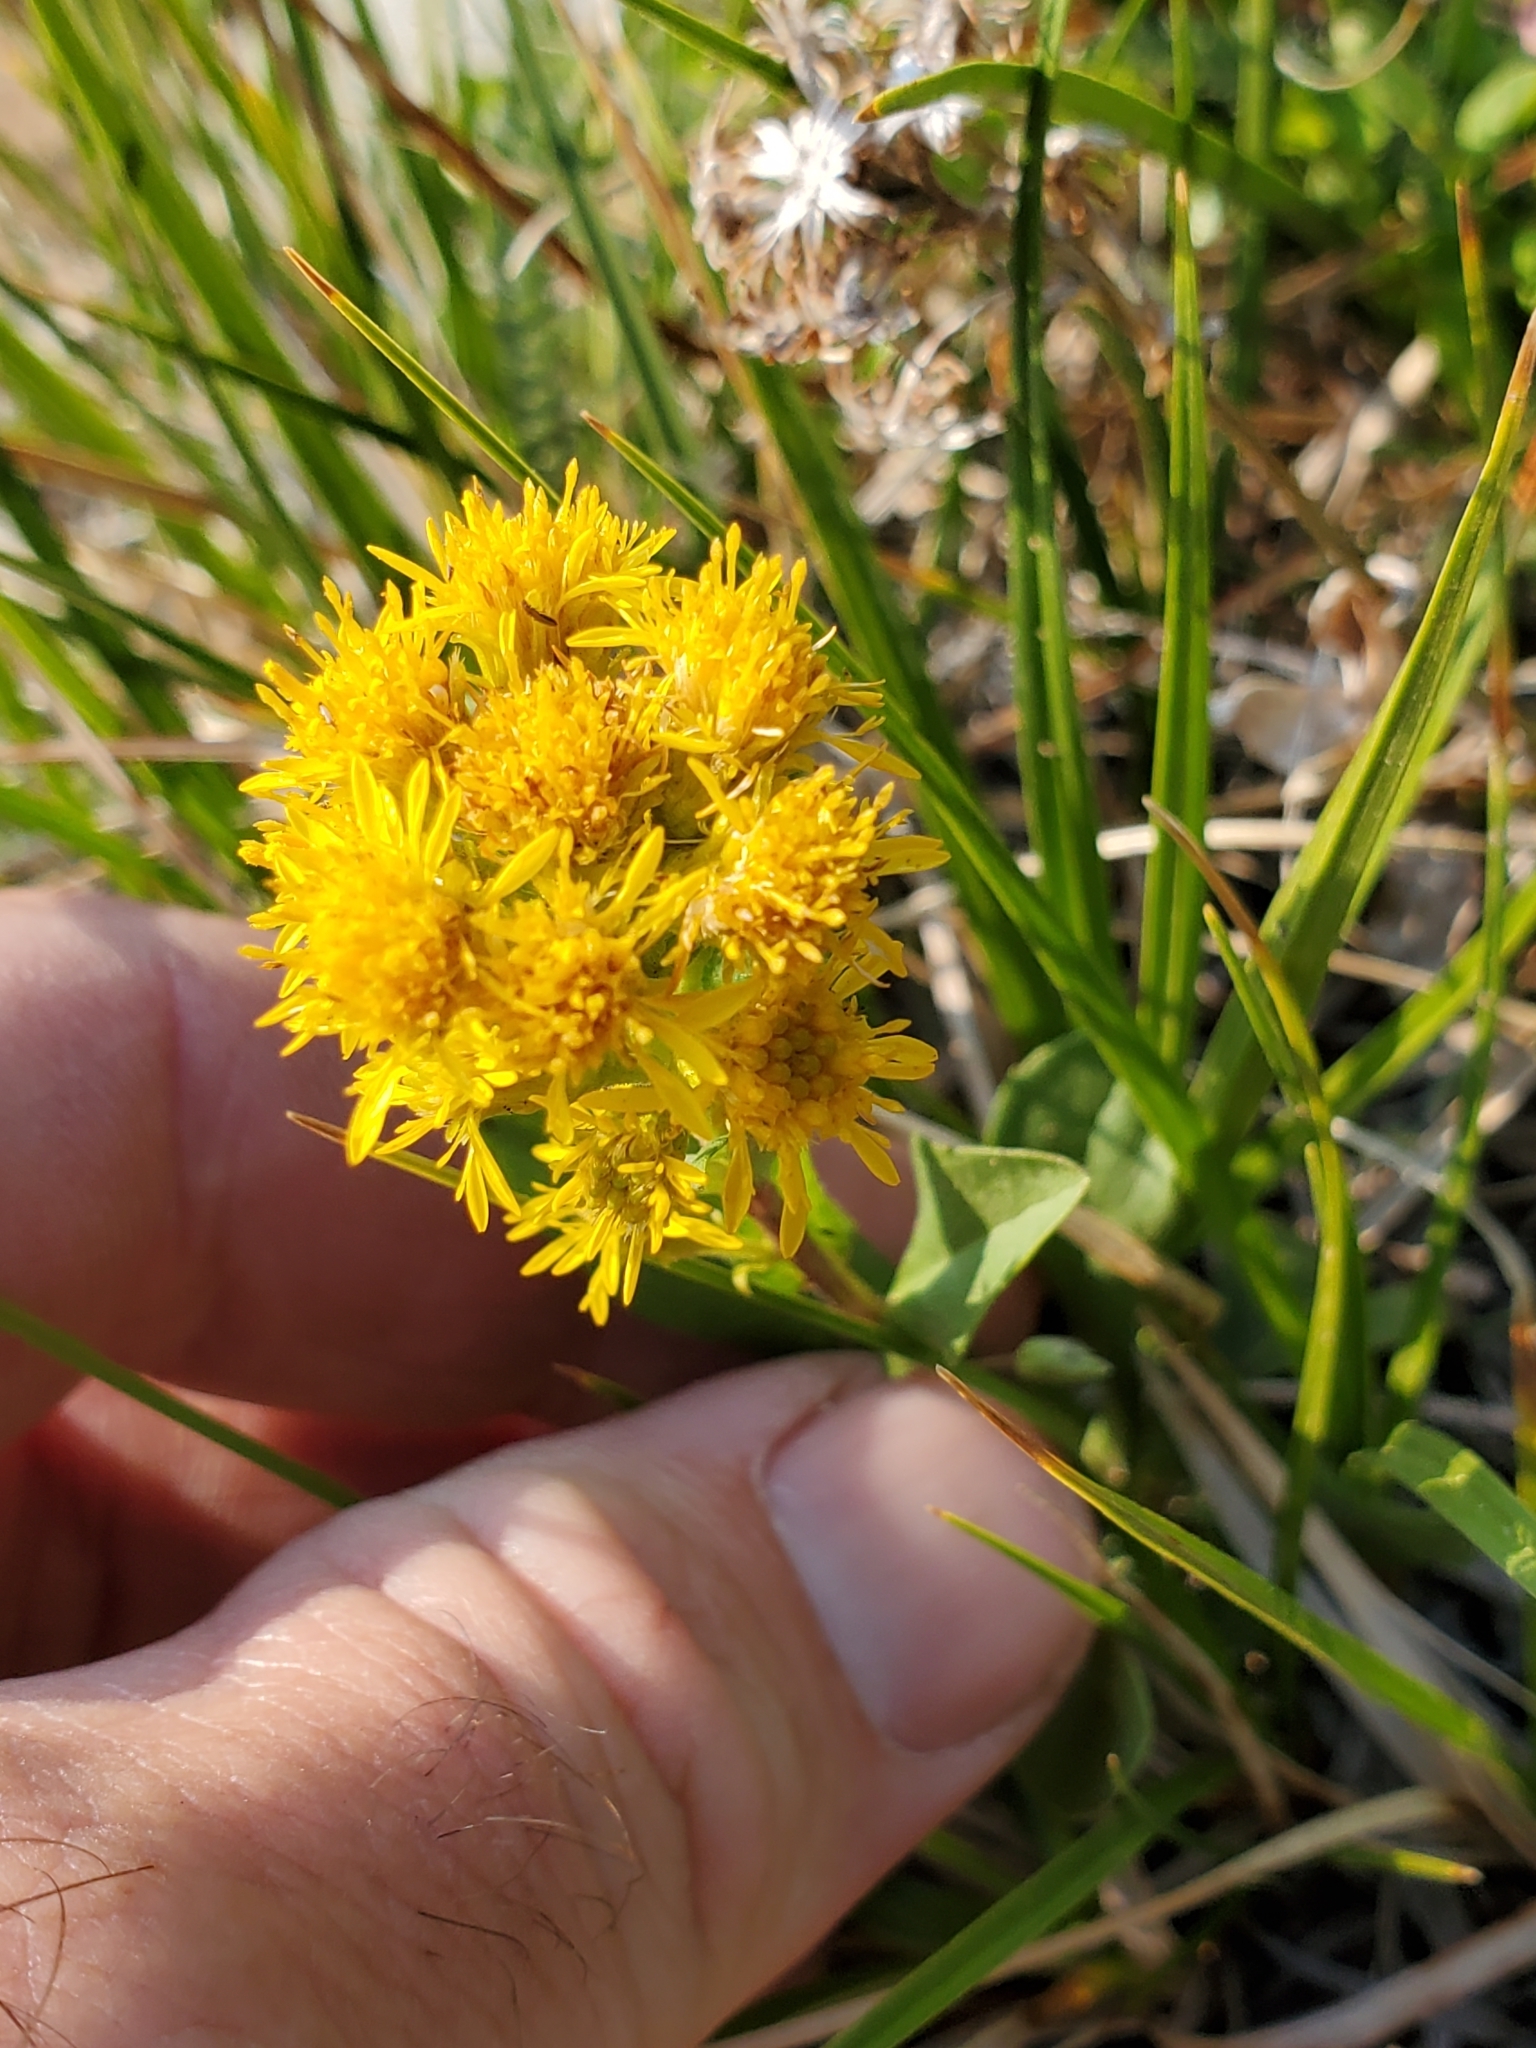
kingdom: Plantae
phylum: Tracheophyta
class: Magnoliopsida
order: Asterales
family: Asteraceae
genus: Solidago
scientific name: Solidago multiradiata
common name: Northern goldenrod
